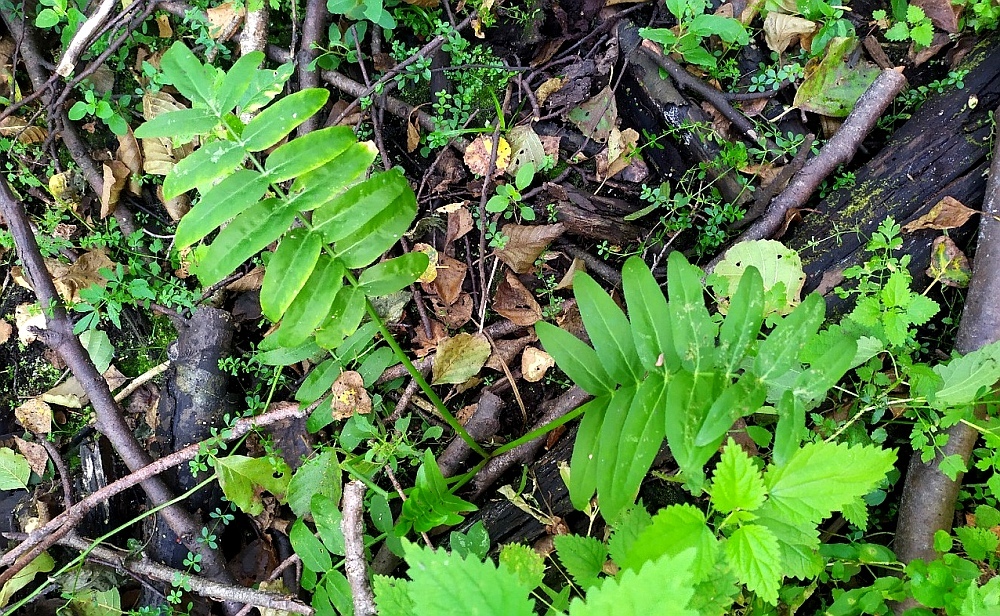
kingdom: Plantae
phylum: Tracheophyta
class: Magnoliopsida
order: Apiales
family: Apiaceae
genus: Sium
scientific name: Sium latifolium
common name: Greater water-parsnip
